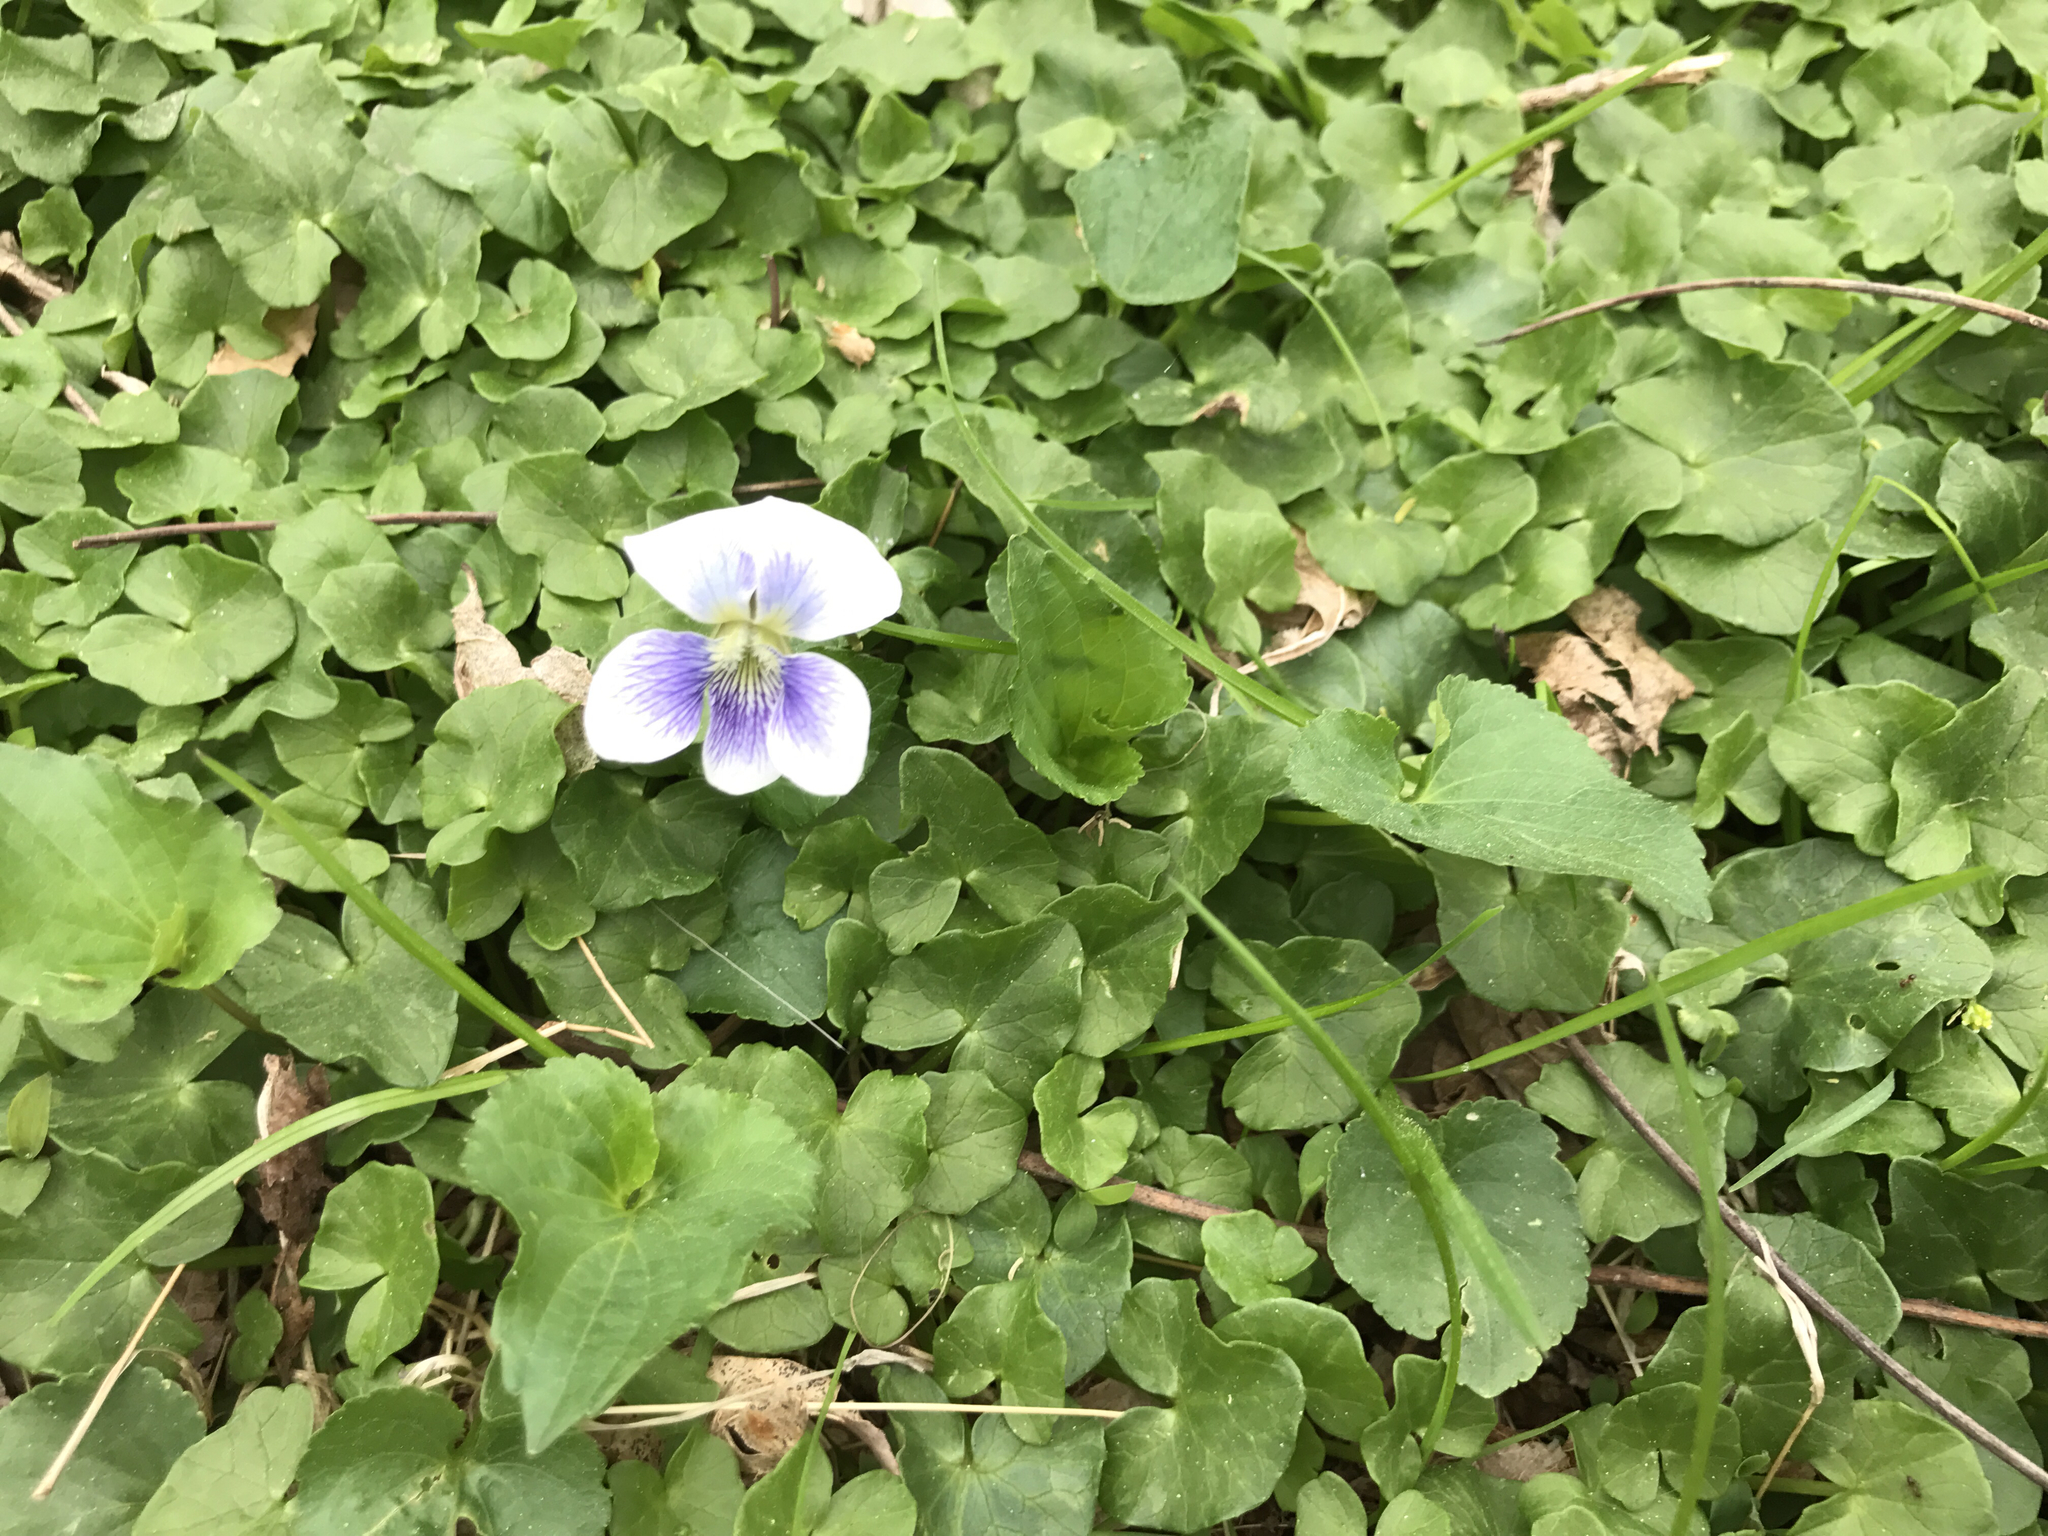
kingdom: Plantae
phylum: Tracheophyta
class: Magnoliopsida
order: Malpighiales
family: Violaceae
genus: Viola
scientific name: Viola sororia
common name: Dooryard violet
